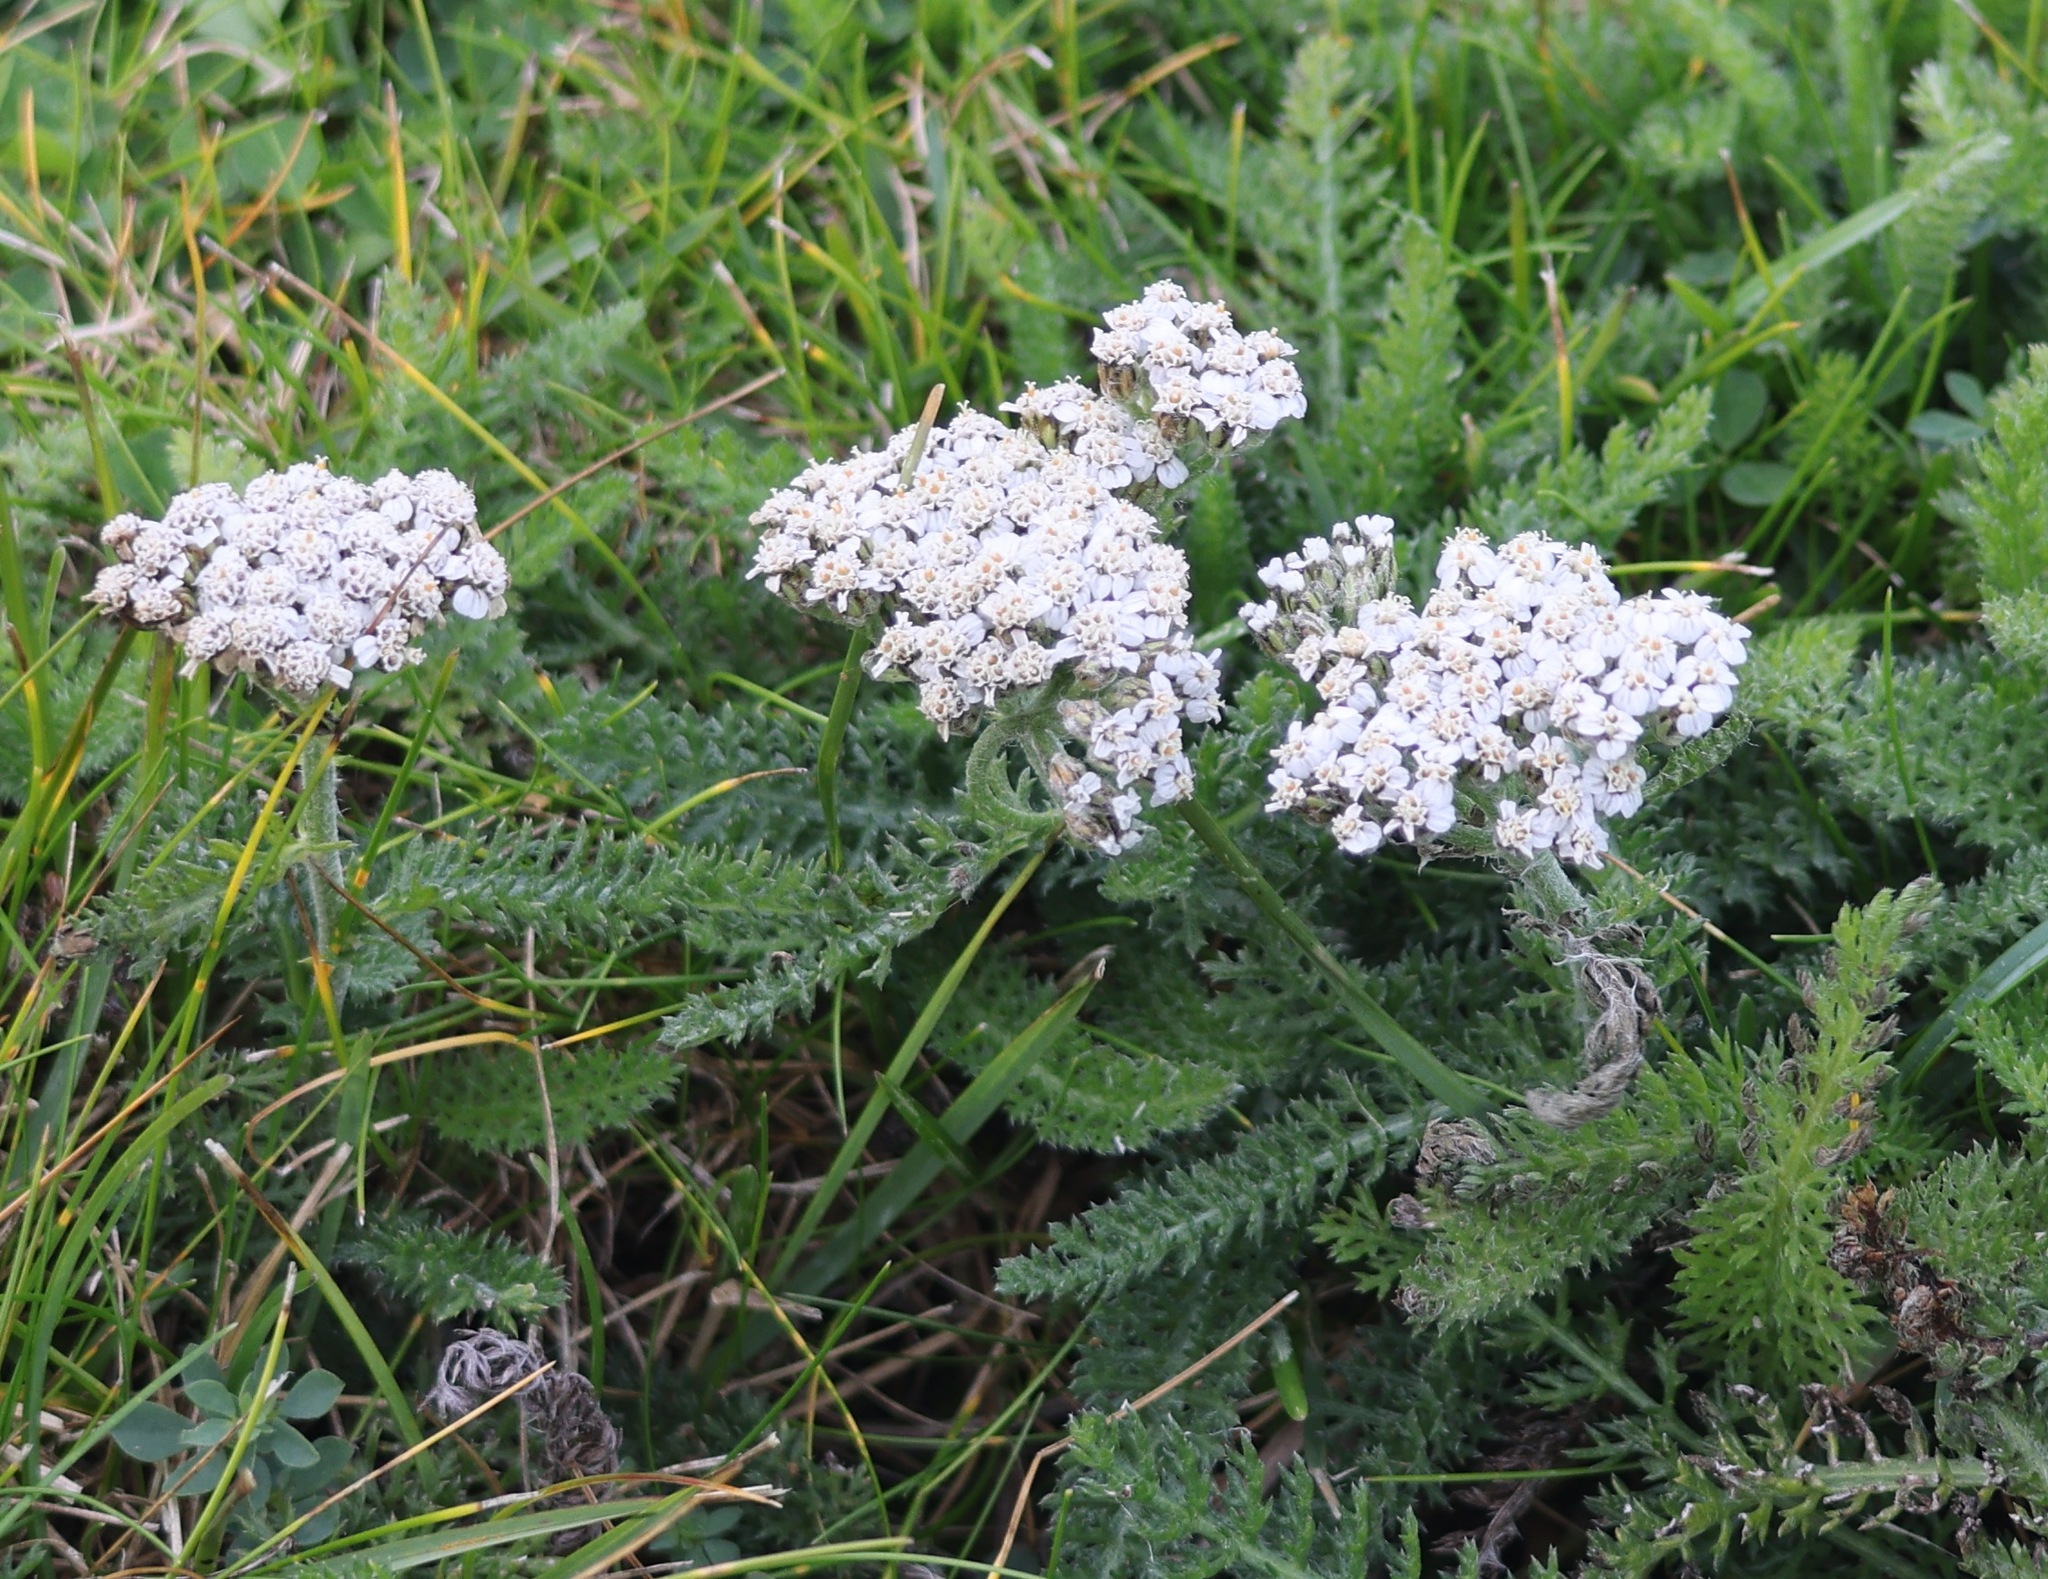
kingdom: Plantae
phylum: Tracheophyta
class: Magnoliopsida
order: Asterales
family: Asteraceae
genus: Achillea
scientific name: Achillea millefolium
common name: Yarrow
